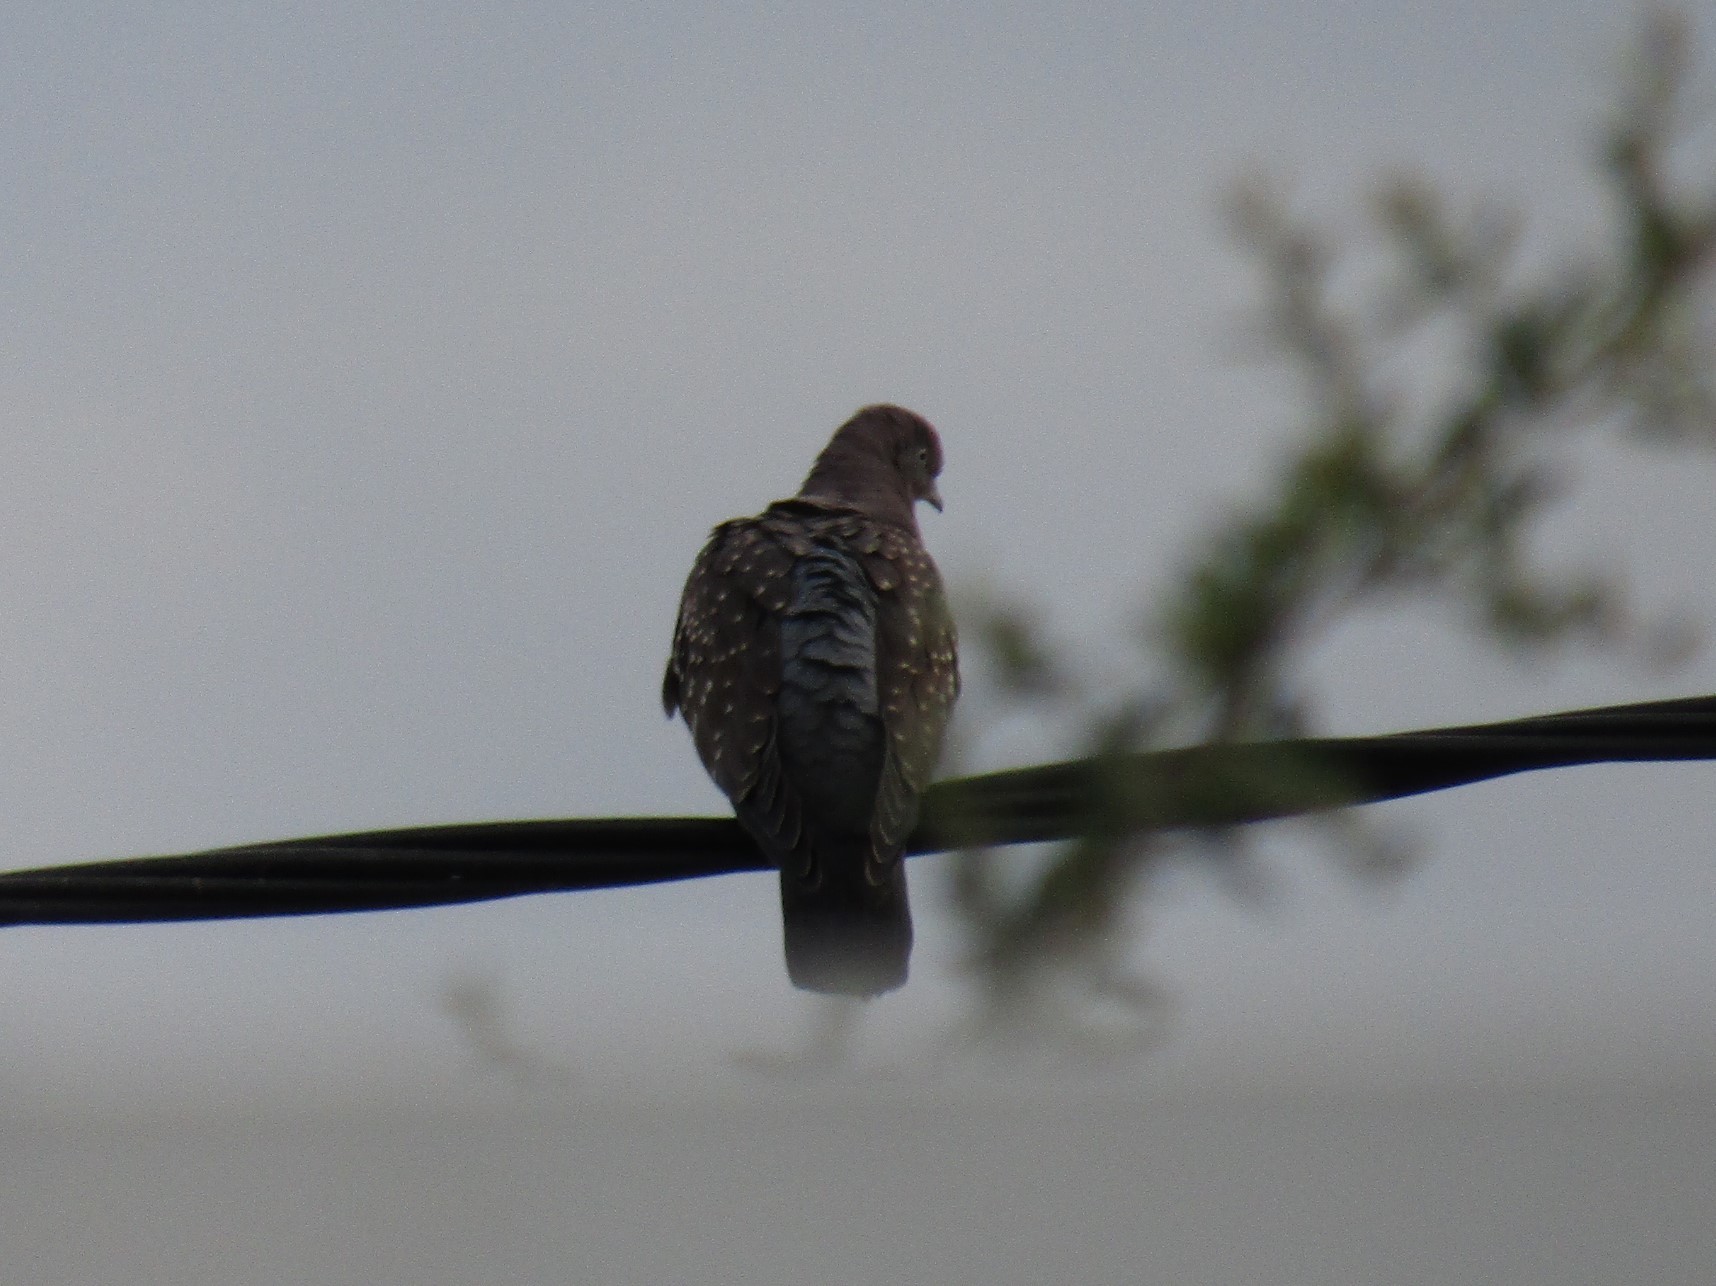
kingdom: Animalia
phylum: Chordata
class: Aves
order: Columbiformes
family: Columbidae
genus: Patagioenas
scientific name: Patagioenas maculosa
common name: Spot-winged pigeon
